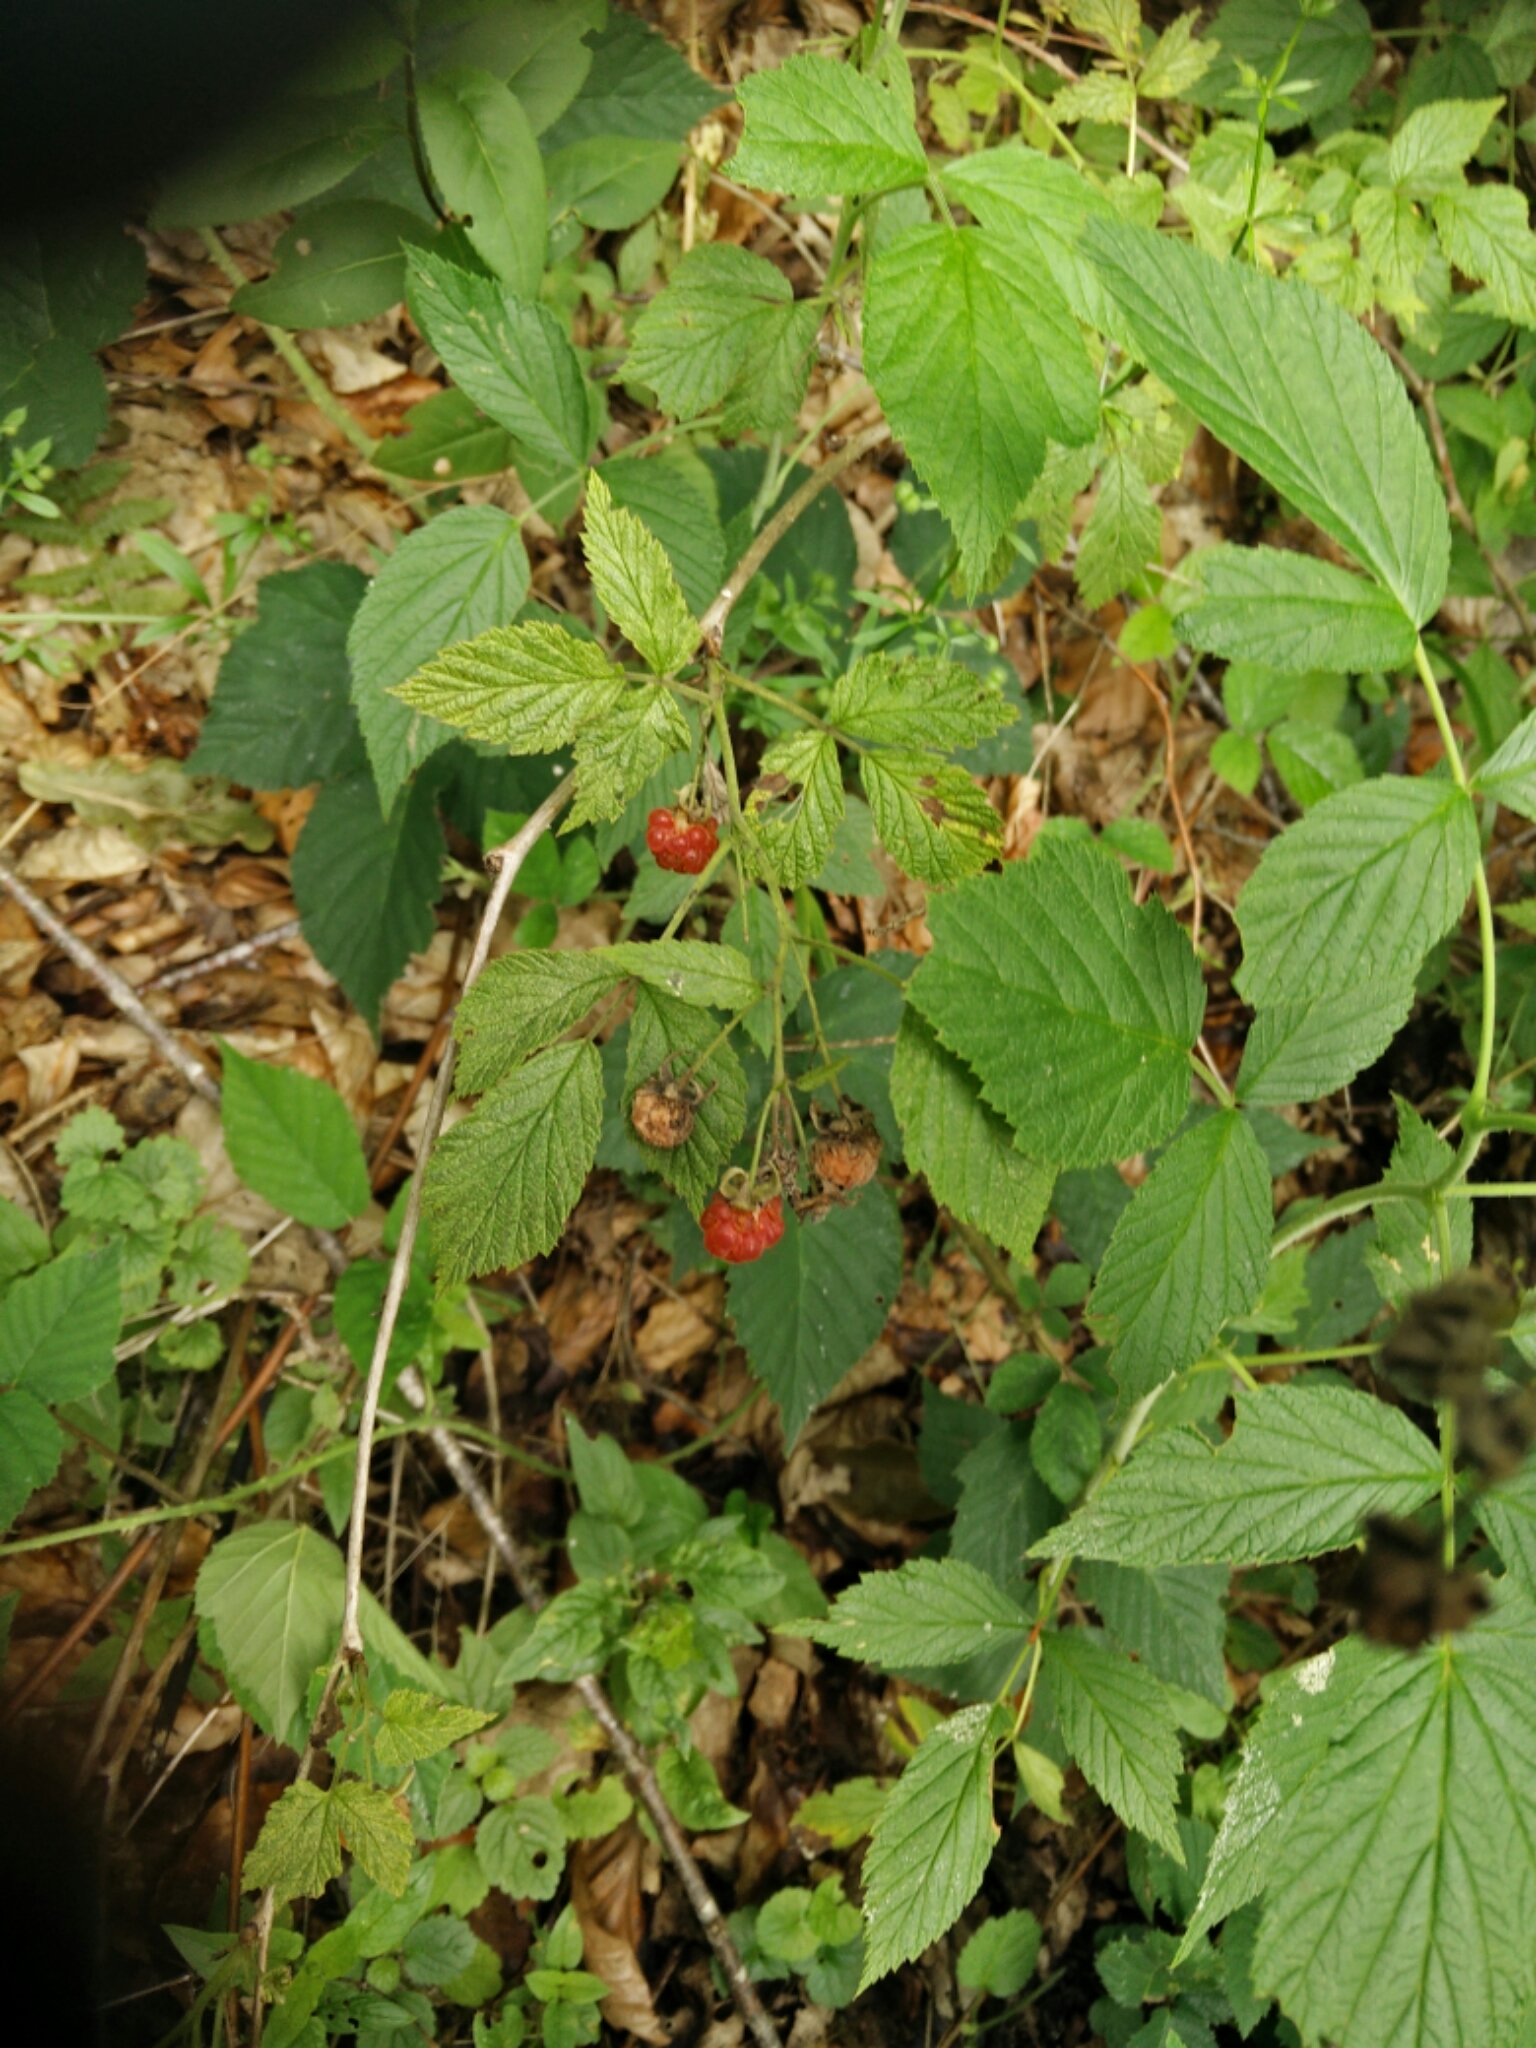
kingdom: Plantae
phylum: Tracheophyta
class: Magnoliopsida
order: Rosales
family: Rosaceae
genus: Rubus
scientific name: Rubus idaeus
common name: Raspberry
